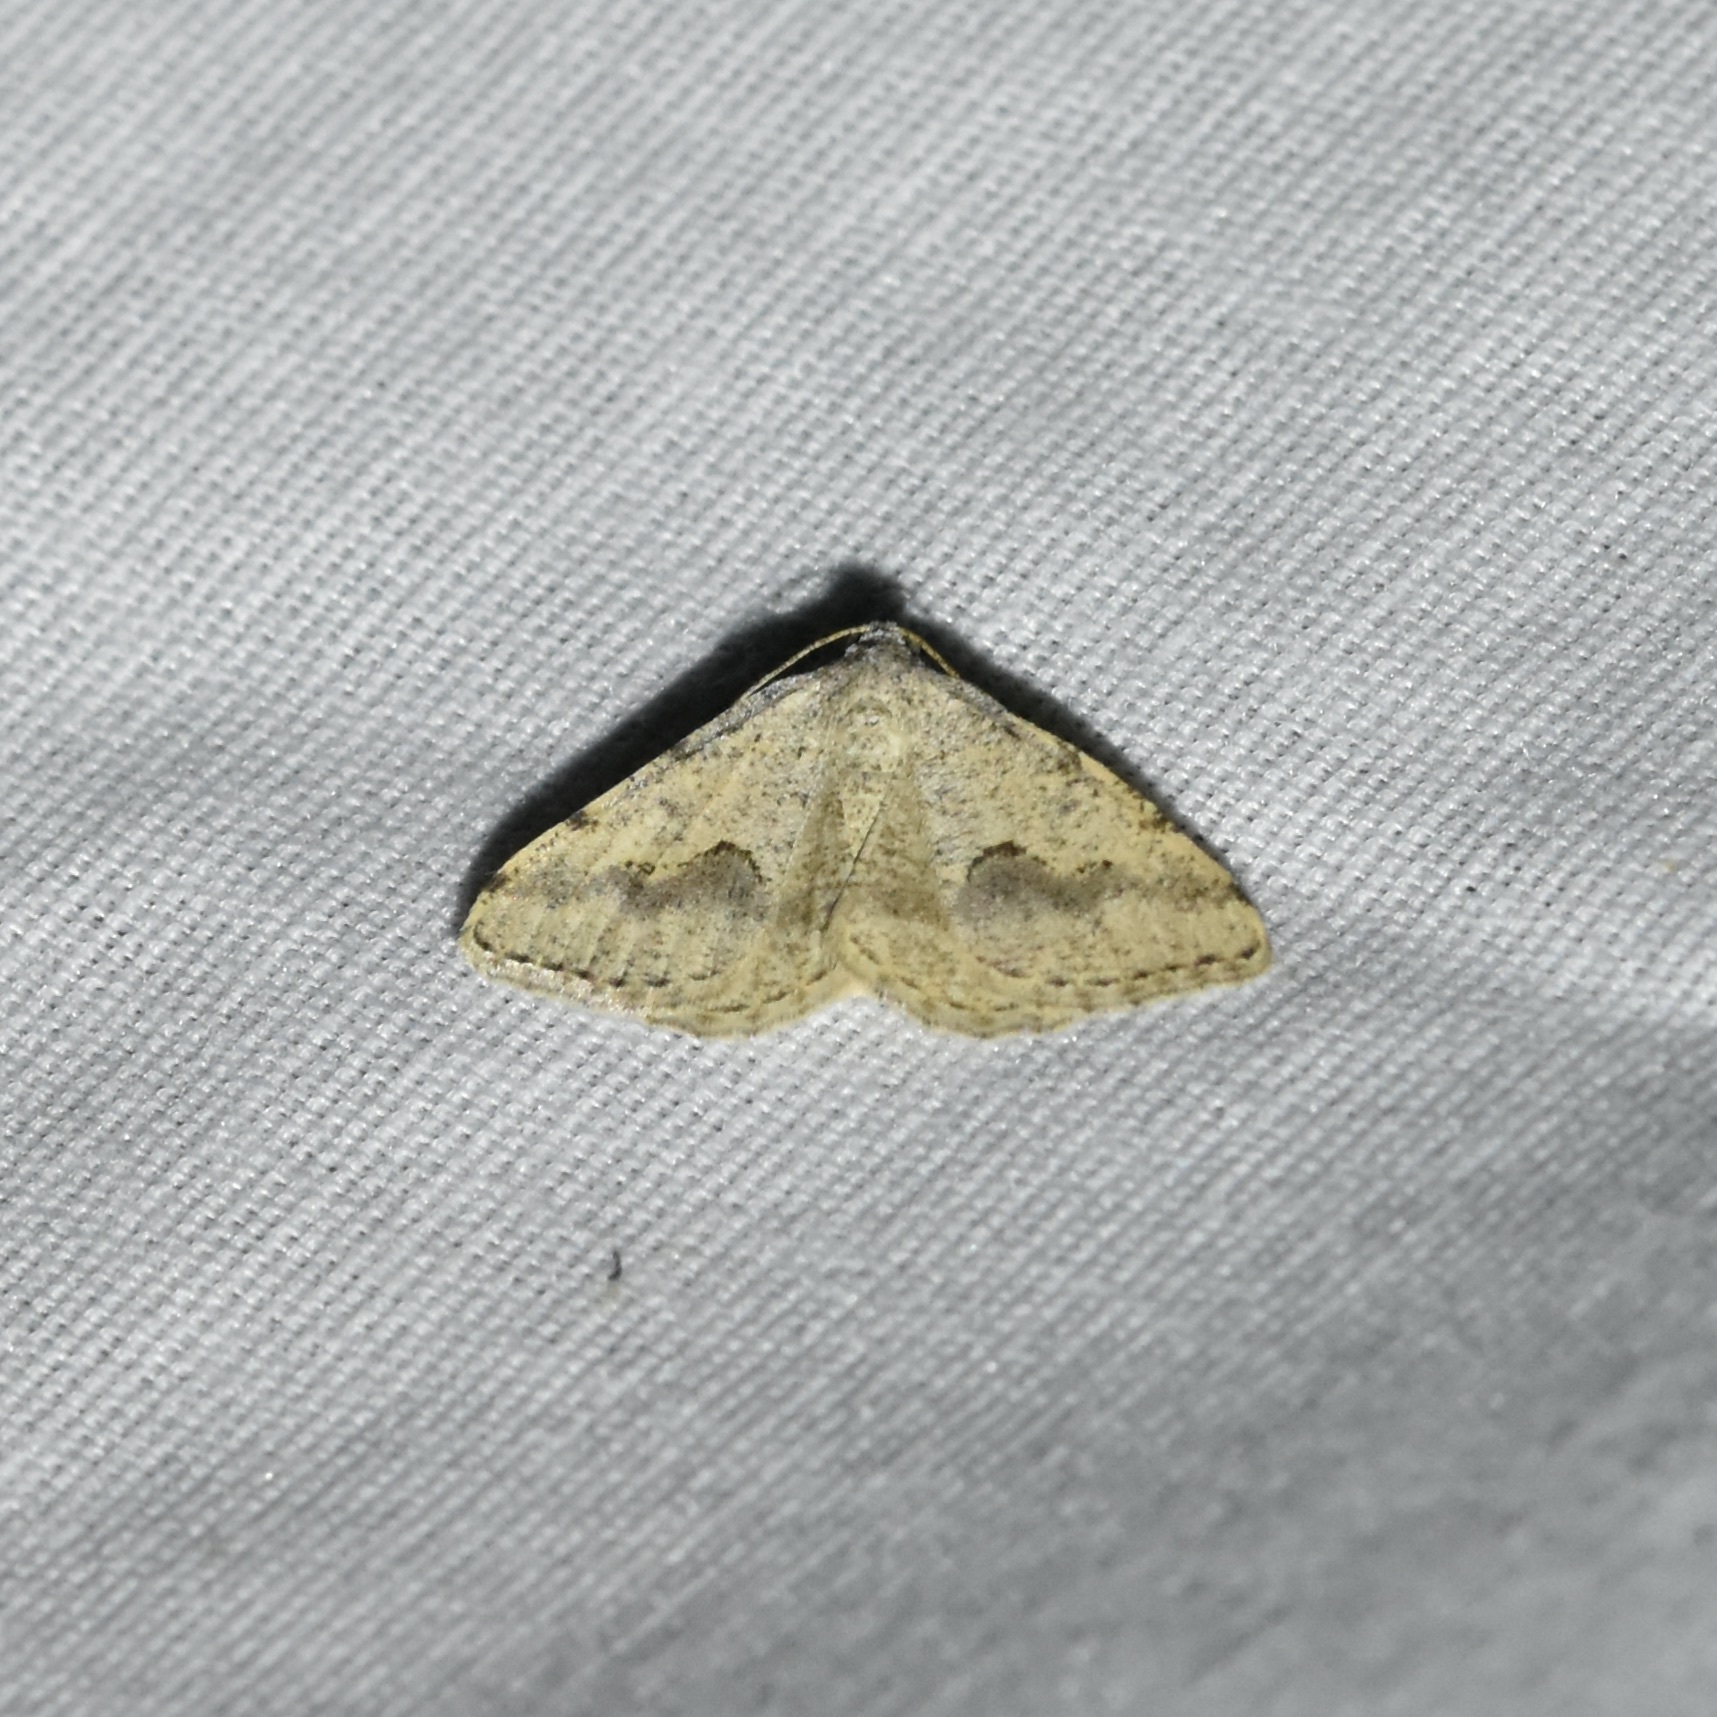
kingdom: Animalia
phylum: Arthropoda
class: Insecta
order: Lepidoptera
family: Geometridae
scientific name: Geometridae
